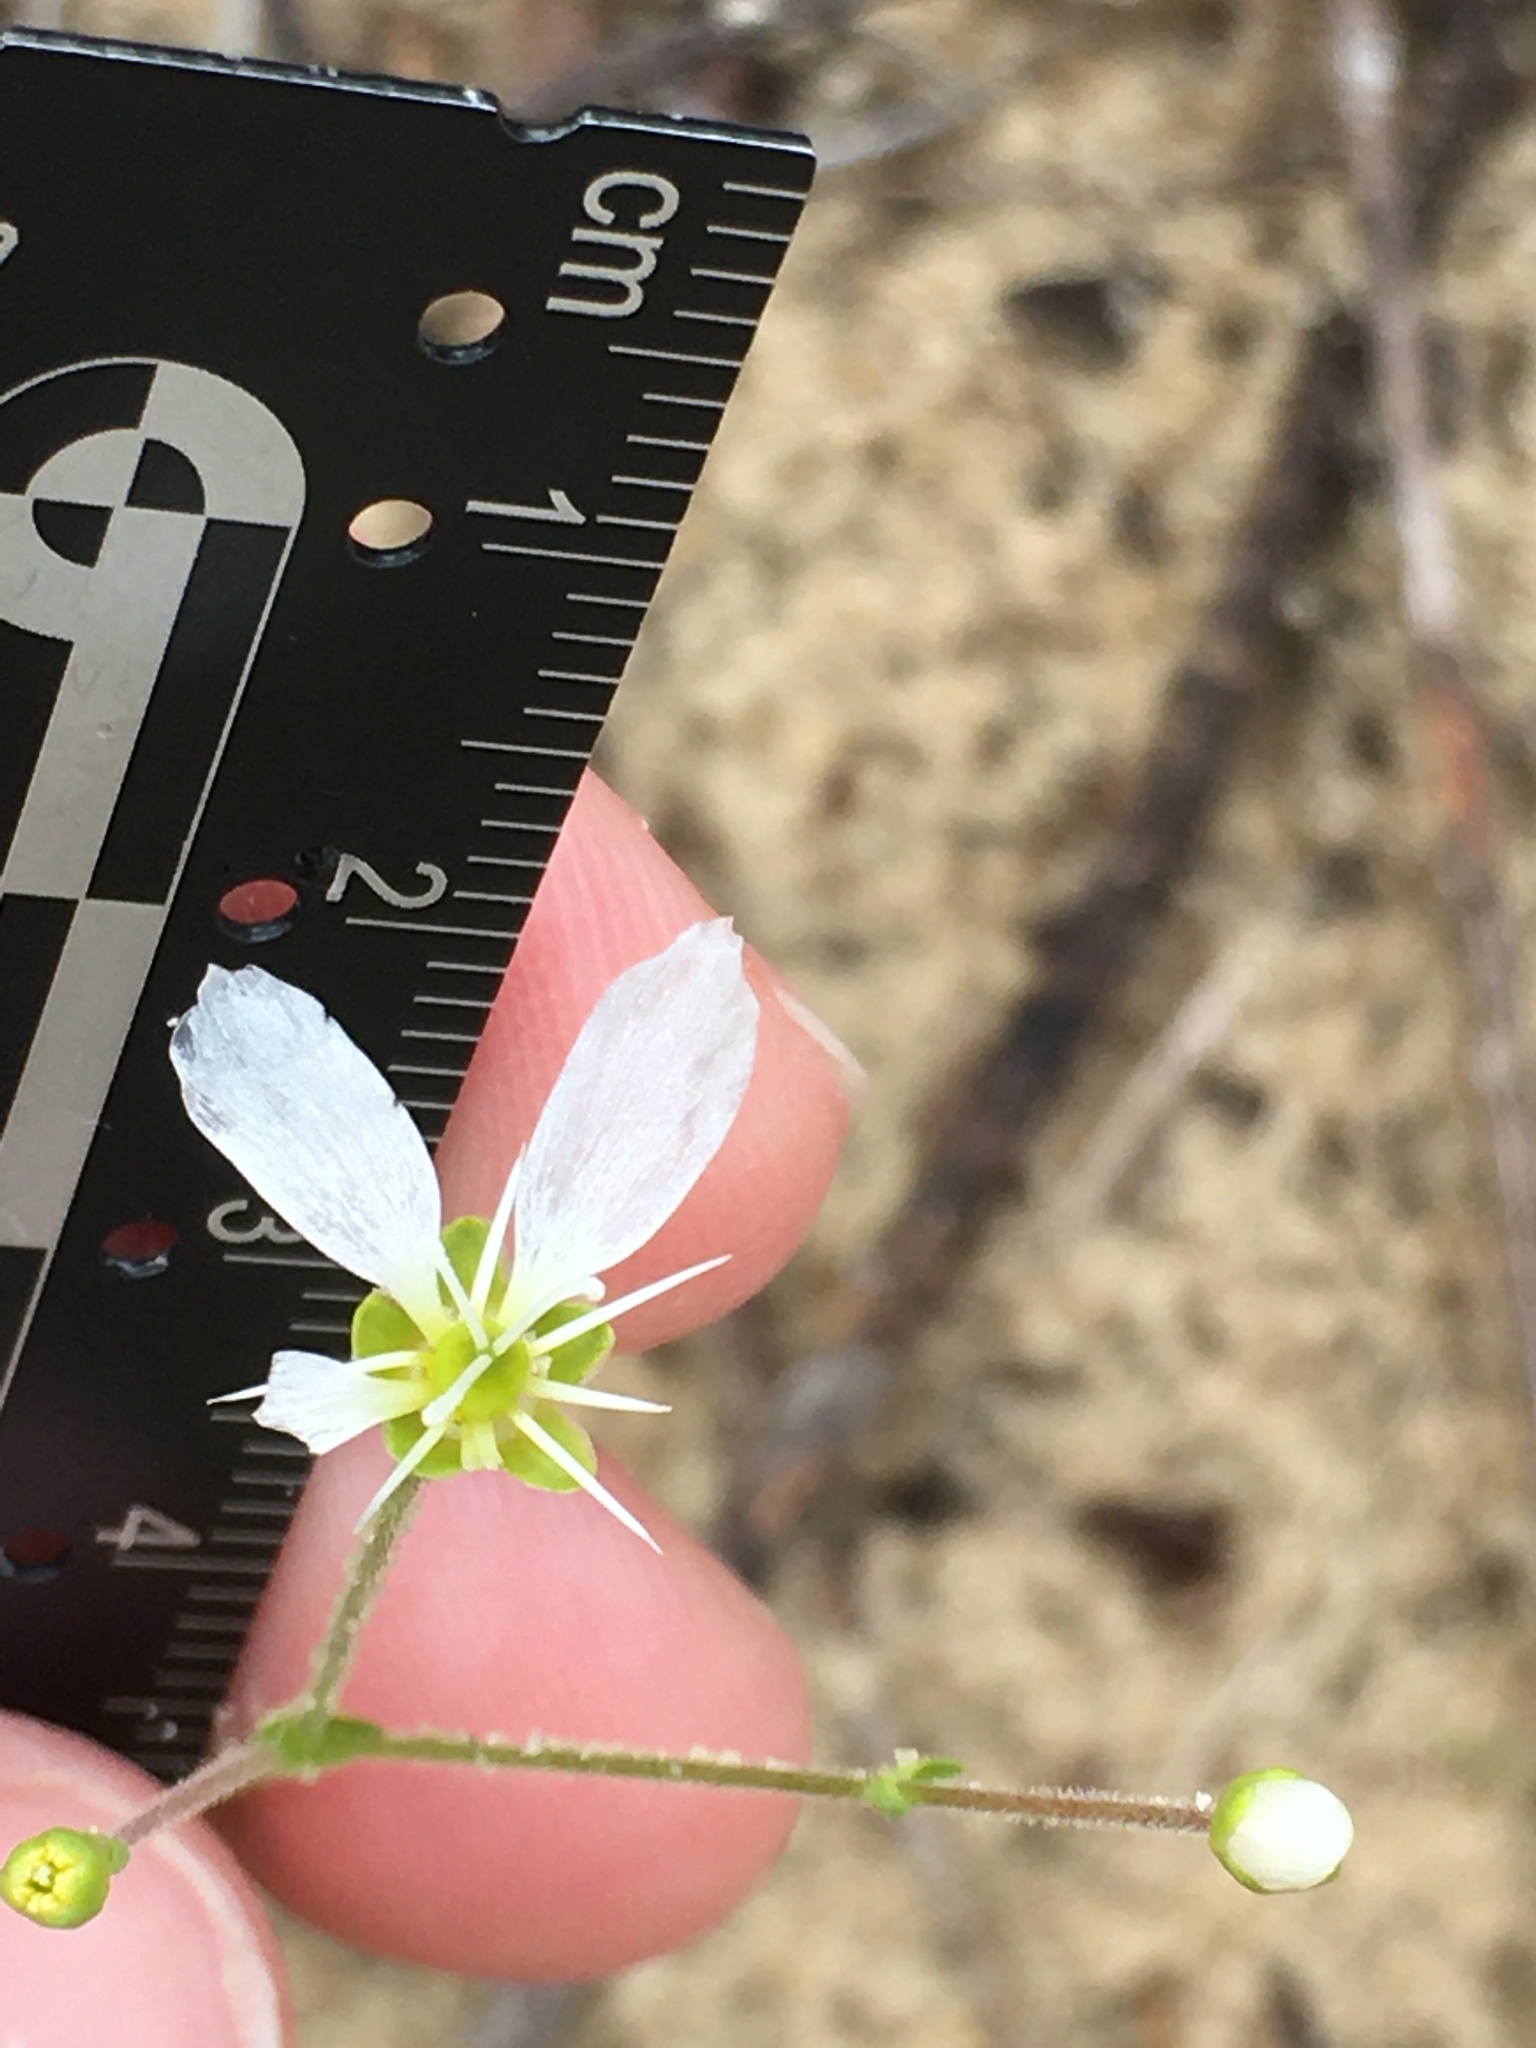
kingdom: Plantae
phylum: Tracheophyta
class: Magnoliopsida
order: Caryophyllales
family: Caryophyllaceae
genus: Geocarpon
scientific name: Geocarpon carolinianum
